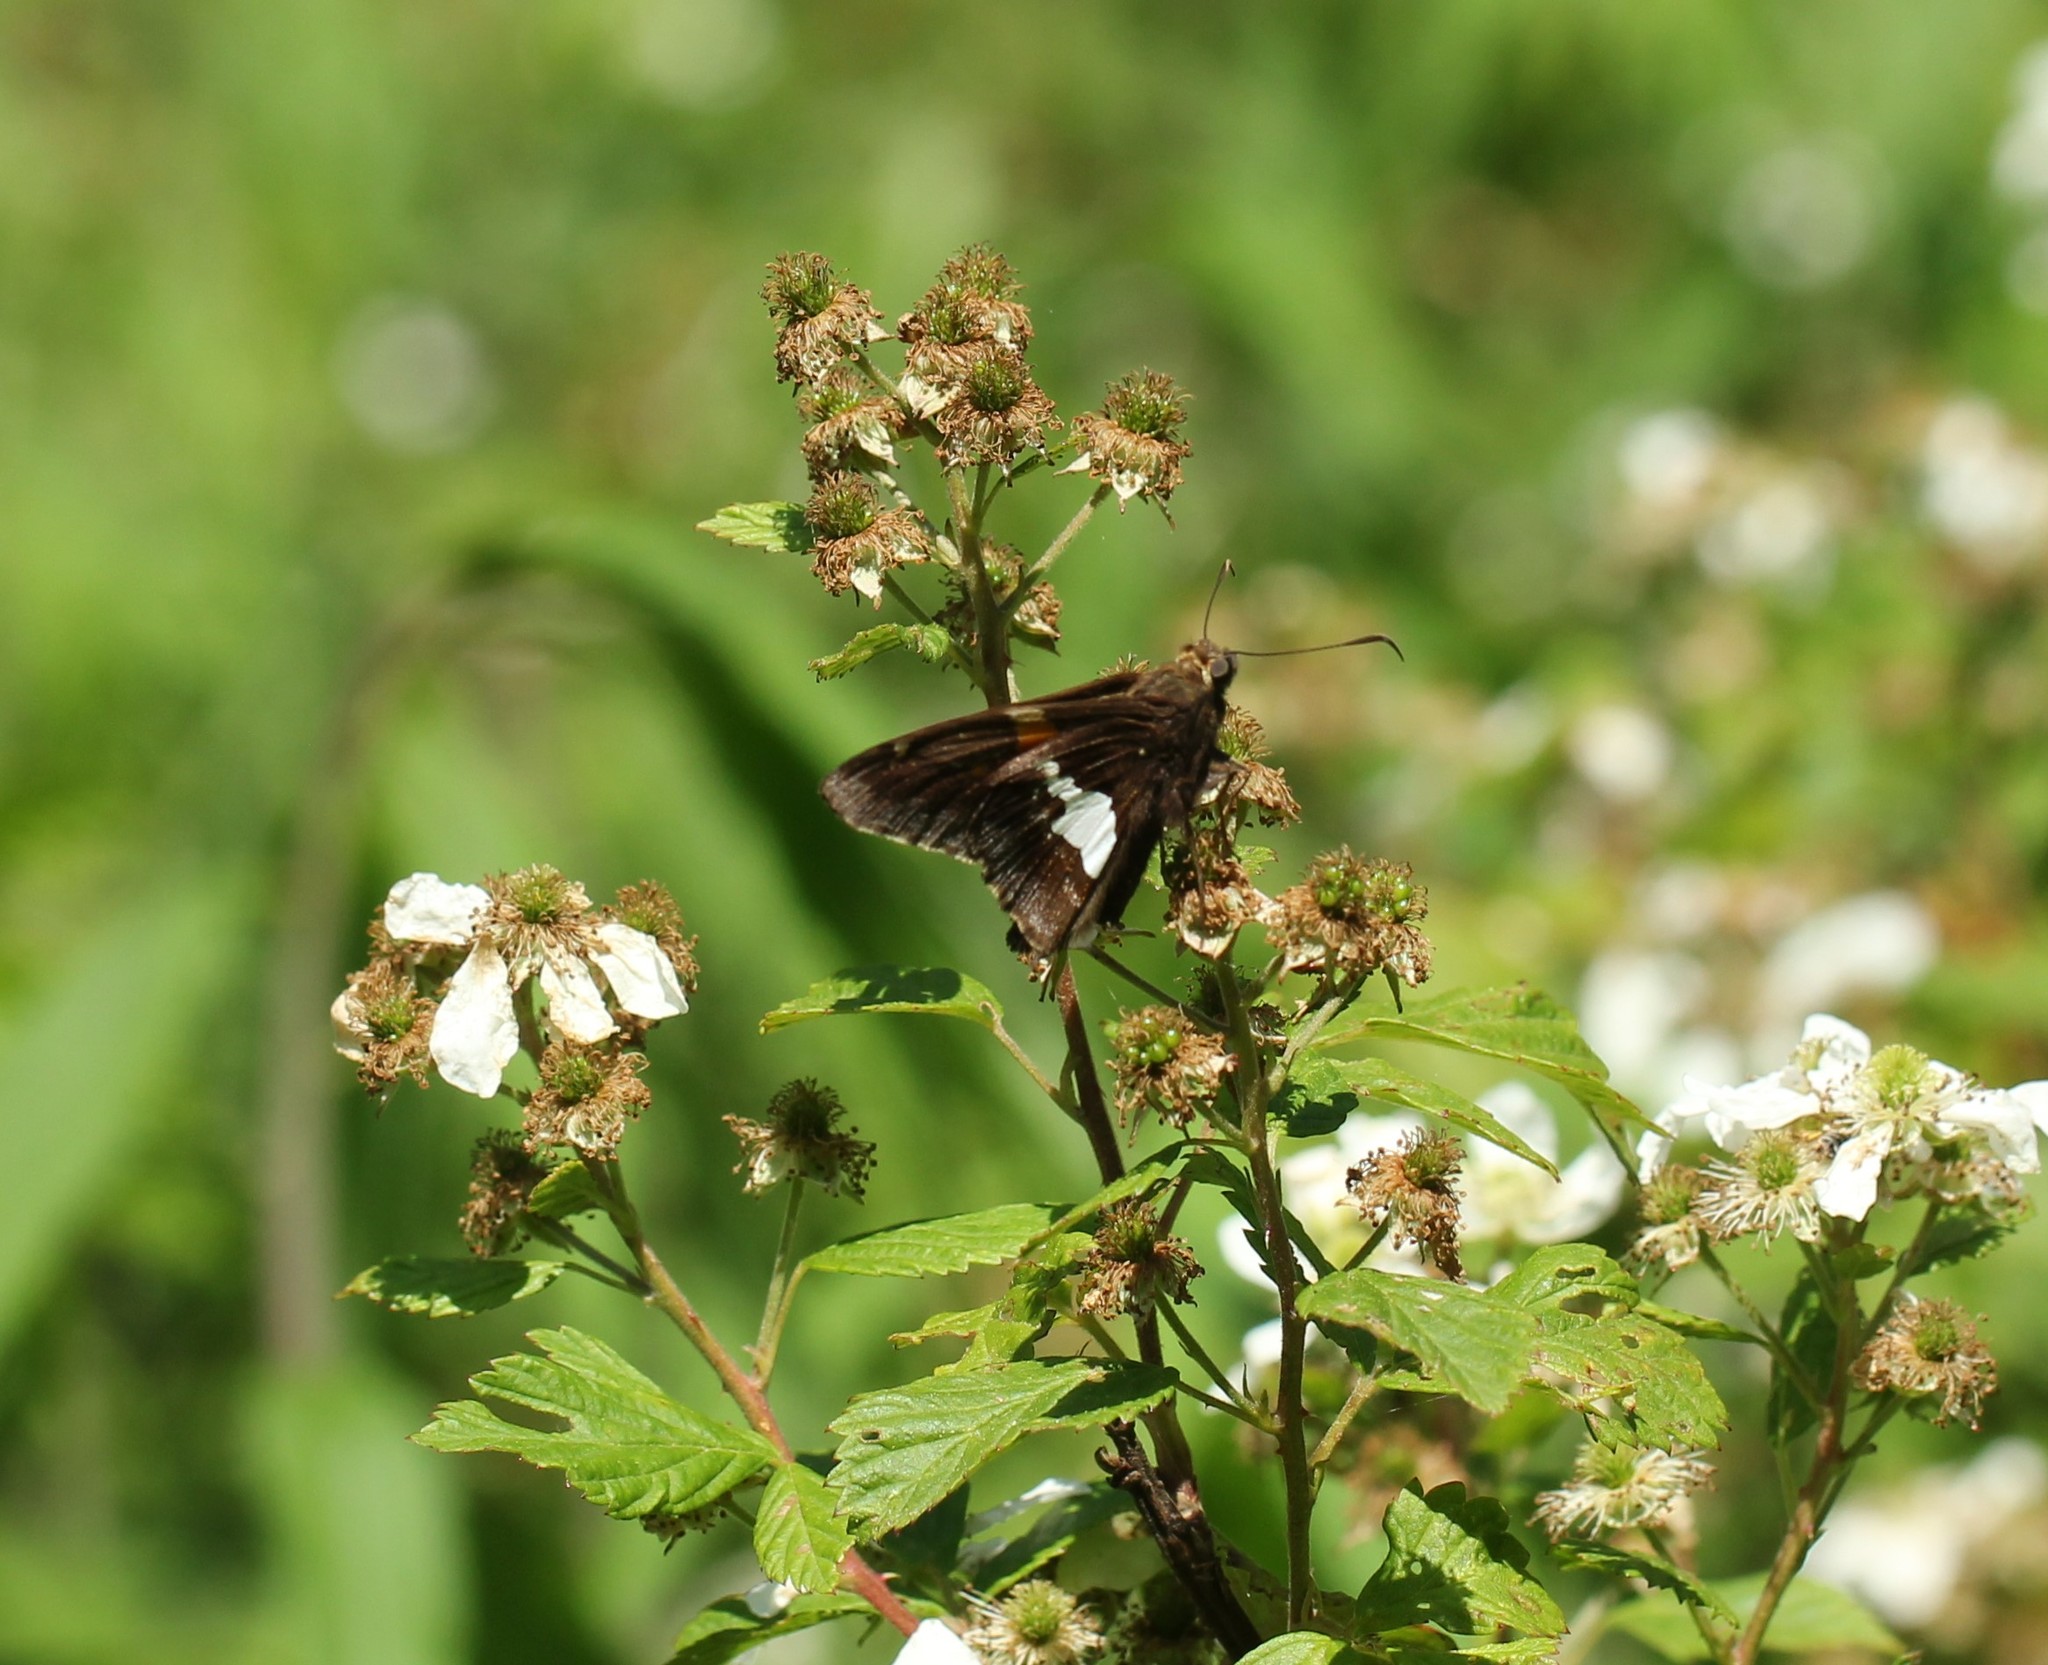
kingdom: Animalia
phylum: Arthropoda
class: Insecta
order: Lepidoptera
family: Hesperiidae
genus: Epargyreus
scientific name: Epargyreus clarus
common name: Silver-spotted skipper
